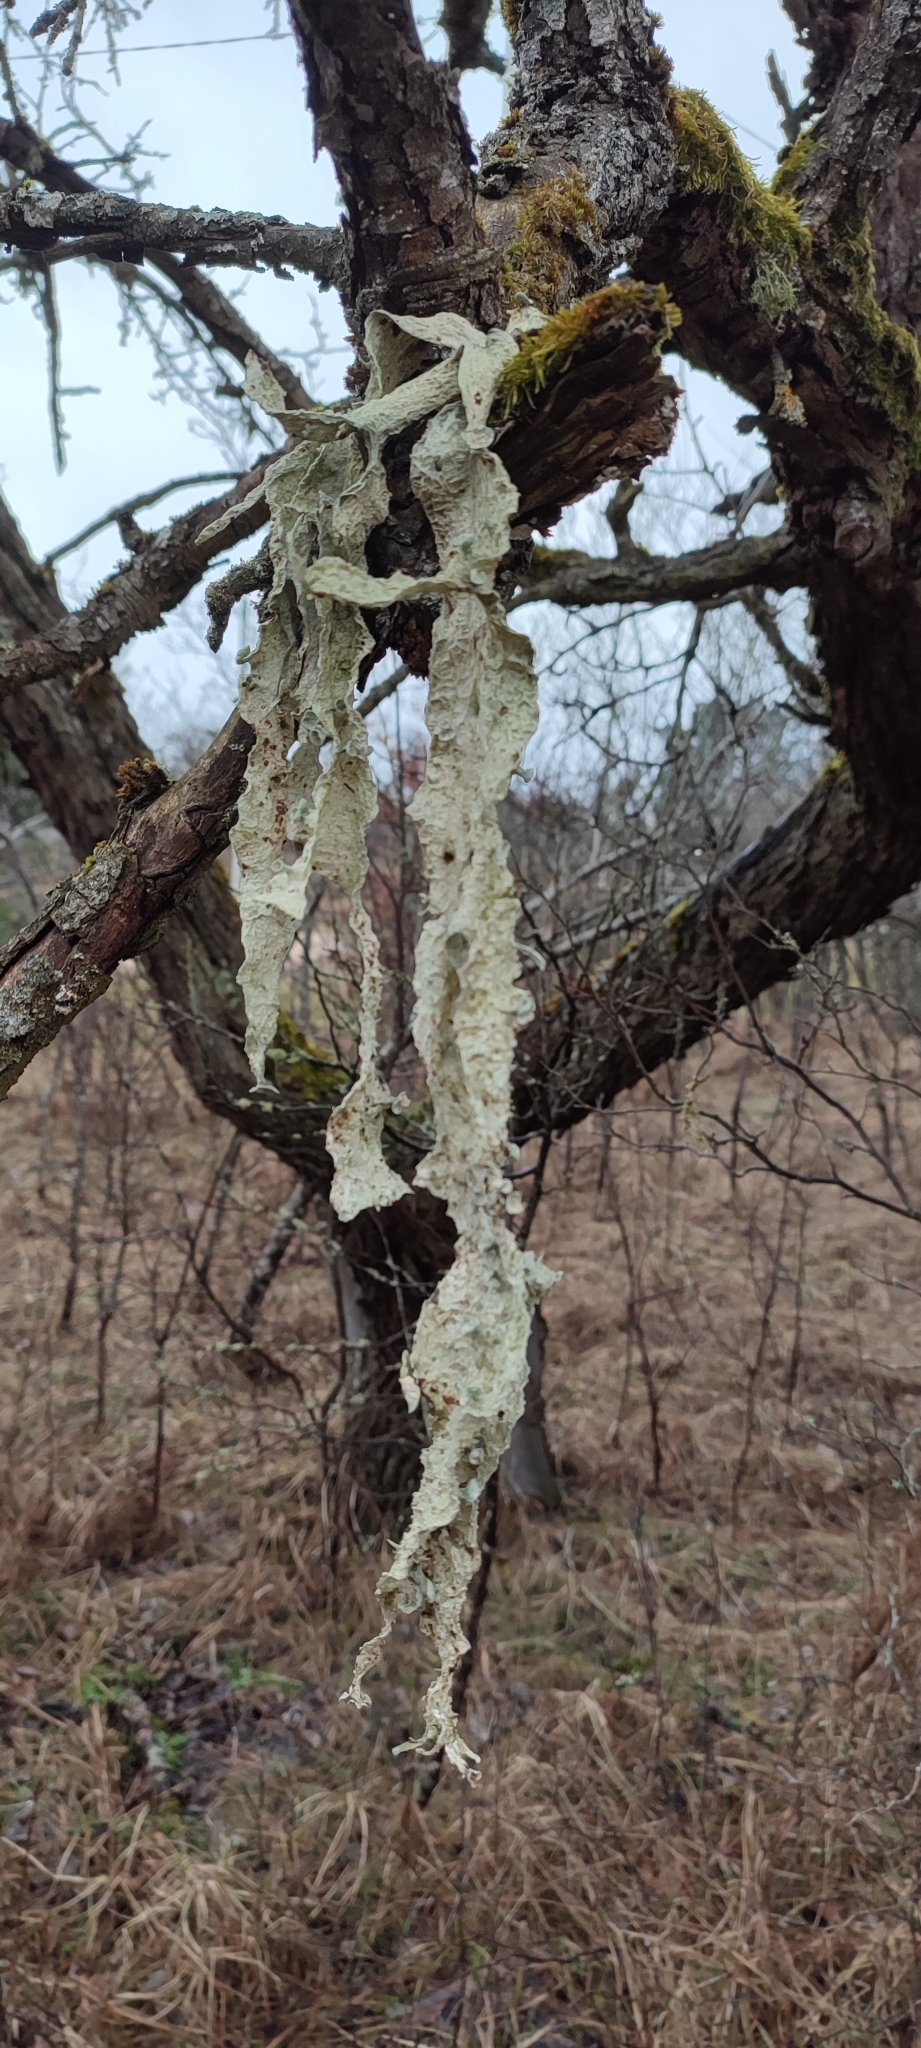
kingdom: Fungi
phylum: Ascomycota
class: Lecanoromycetes
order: Lecanorales
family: Ramalinaceae
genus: Ramalina
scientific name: Ramalina fraxinea
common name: Cartilage lichen
